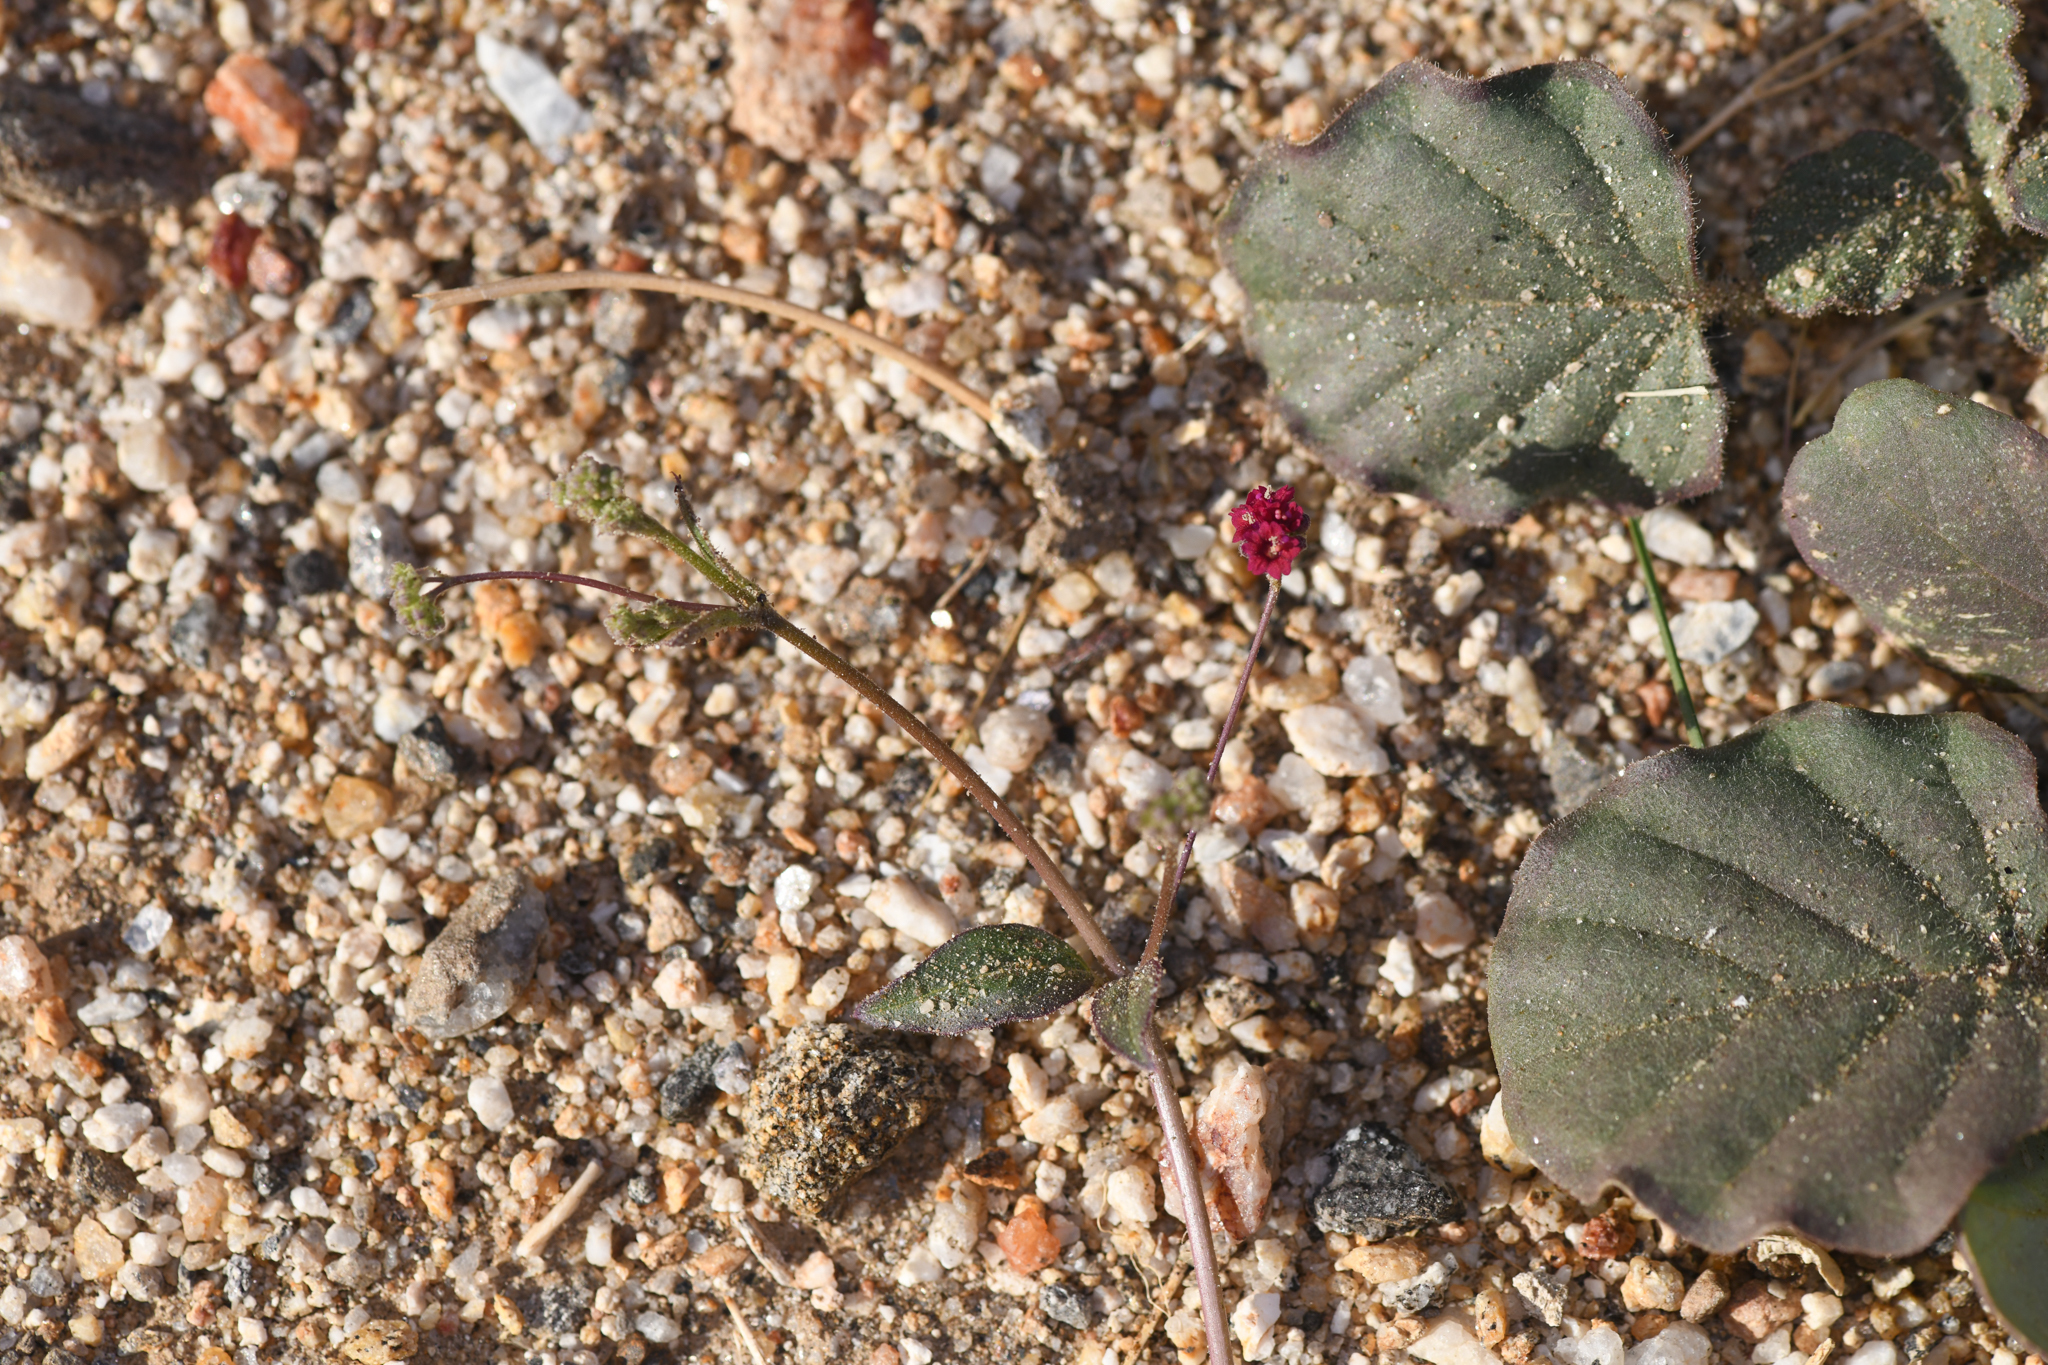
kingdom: Plantae
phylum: Tracheophyta
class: Magnoliopsida
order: Caryophyllales
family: Nyctaginaceae
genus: Boerhavia
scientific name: Boerhavia coccinea
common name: Scarlet spiderling
